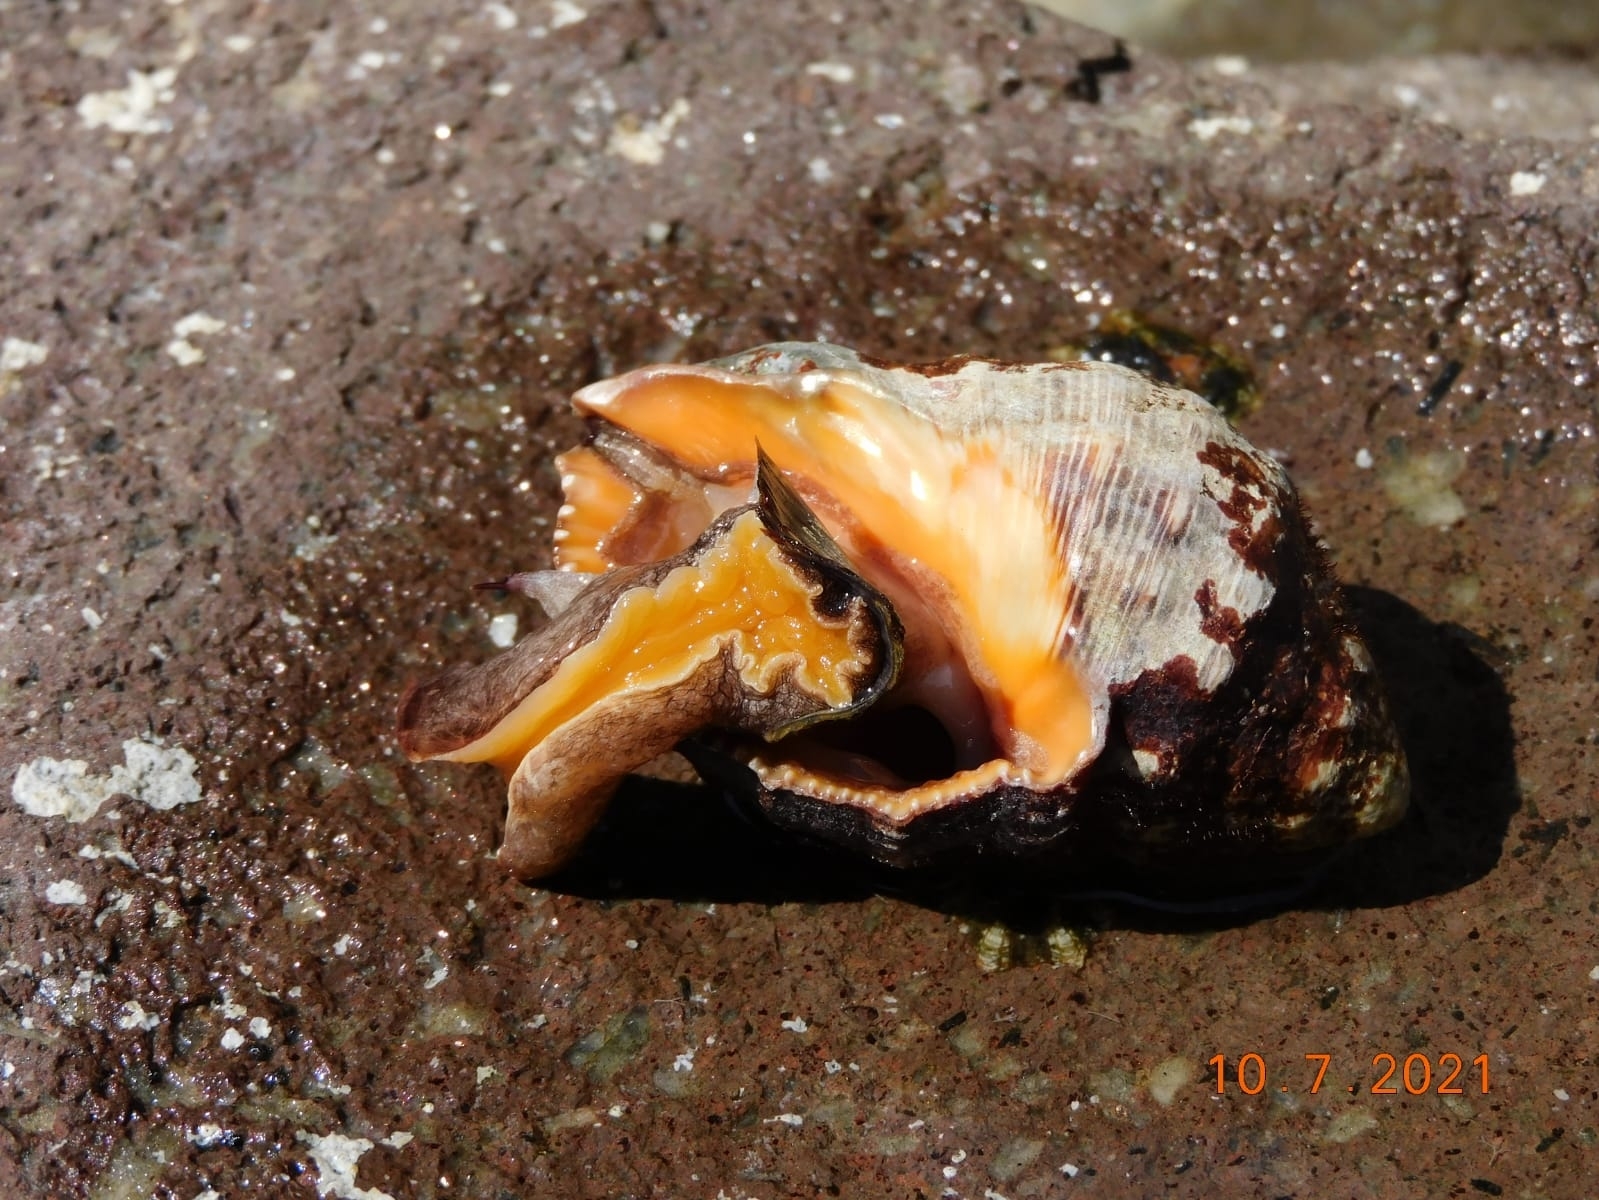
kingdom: Animalia
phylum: Mollusca
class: Gastropoda
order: Neogastropoda
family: Muricidae
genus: Stramonita
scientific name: Stramonita haemastoma
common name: Florida dog winkle
